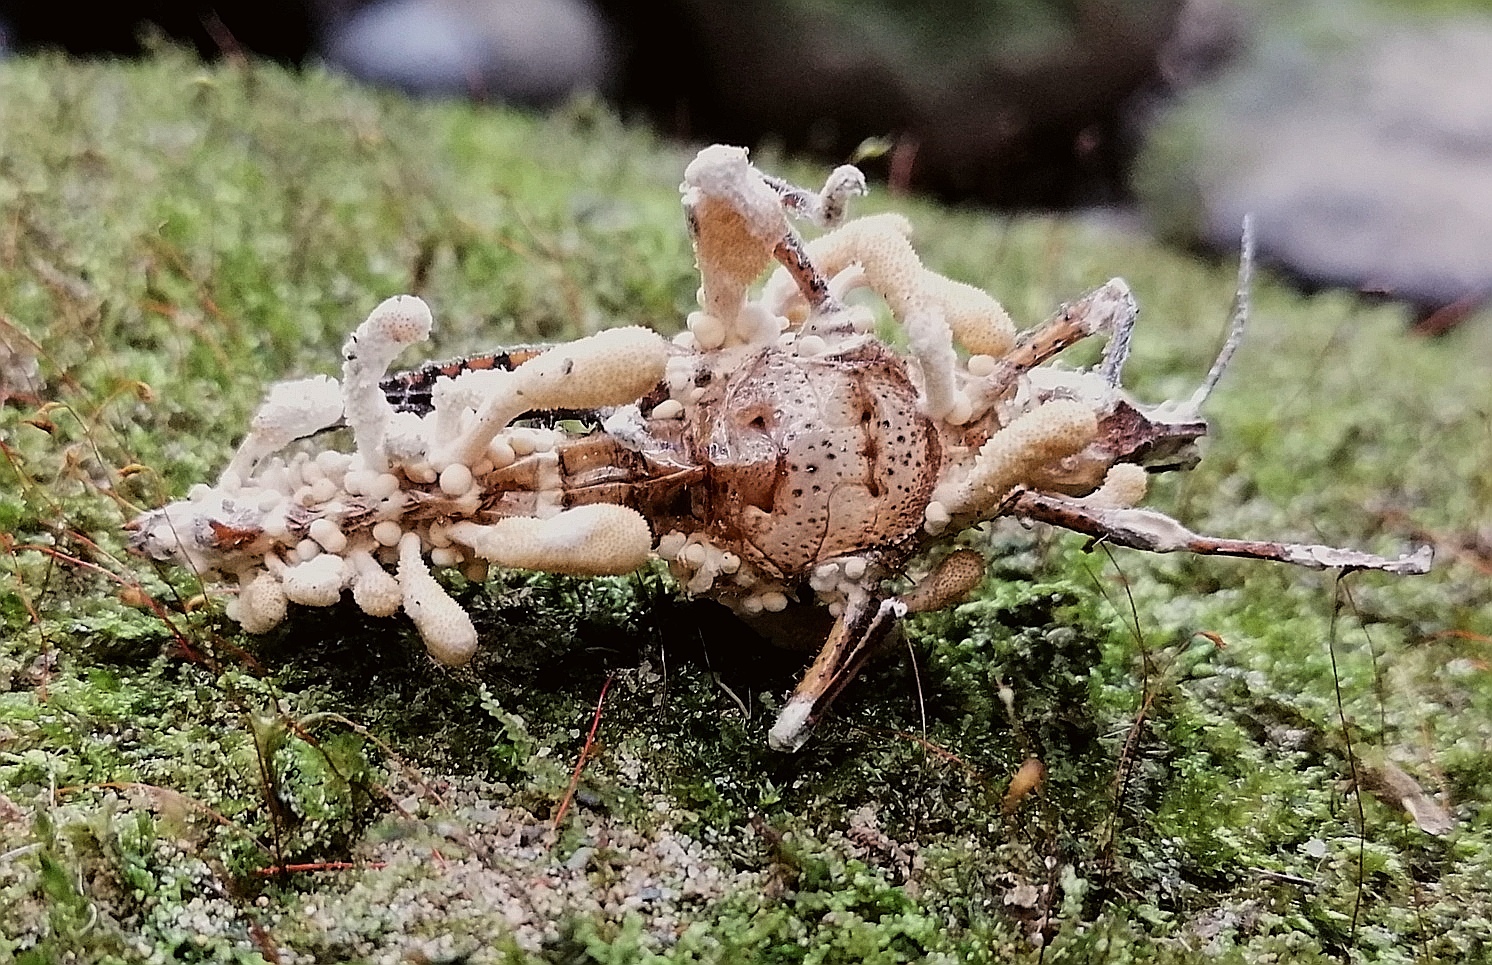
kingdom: Fungi
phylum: Ascomycota
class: Sordariomycetes
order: Hypocreales
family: Cordycipitaceae
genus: Beauveria
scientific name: Beauveria locustiphila
